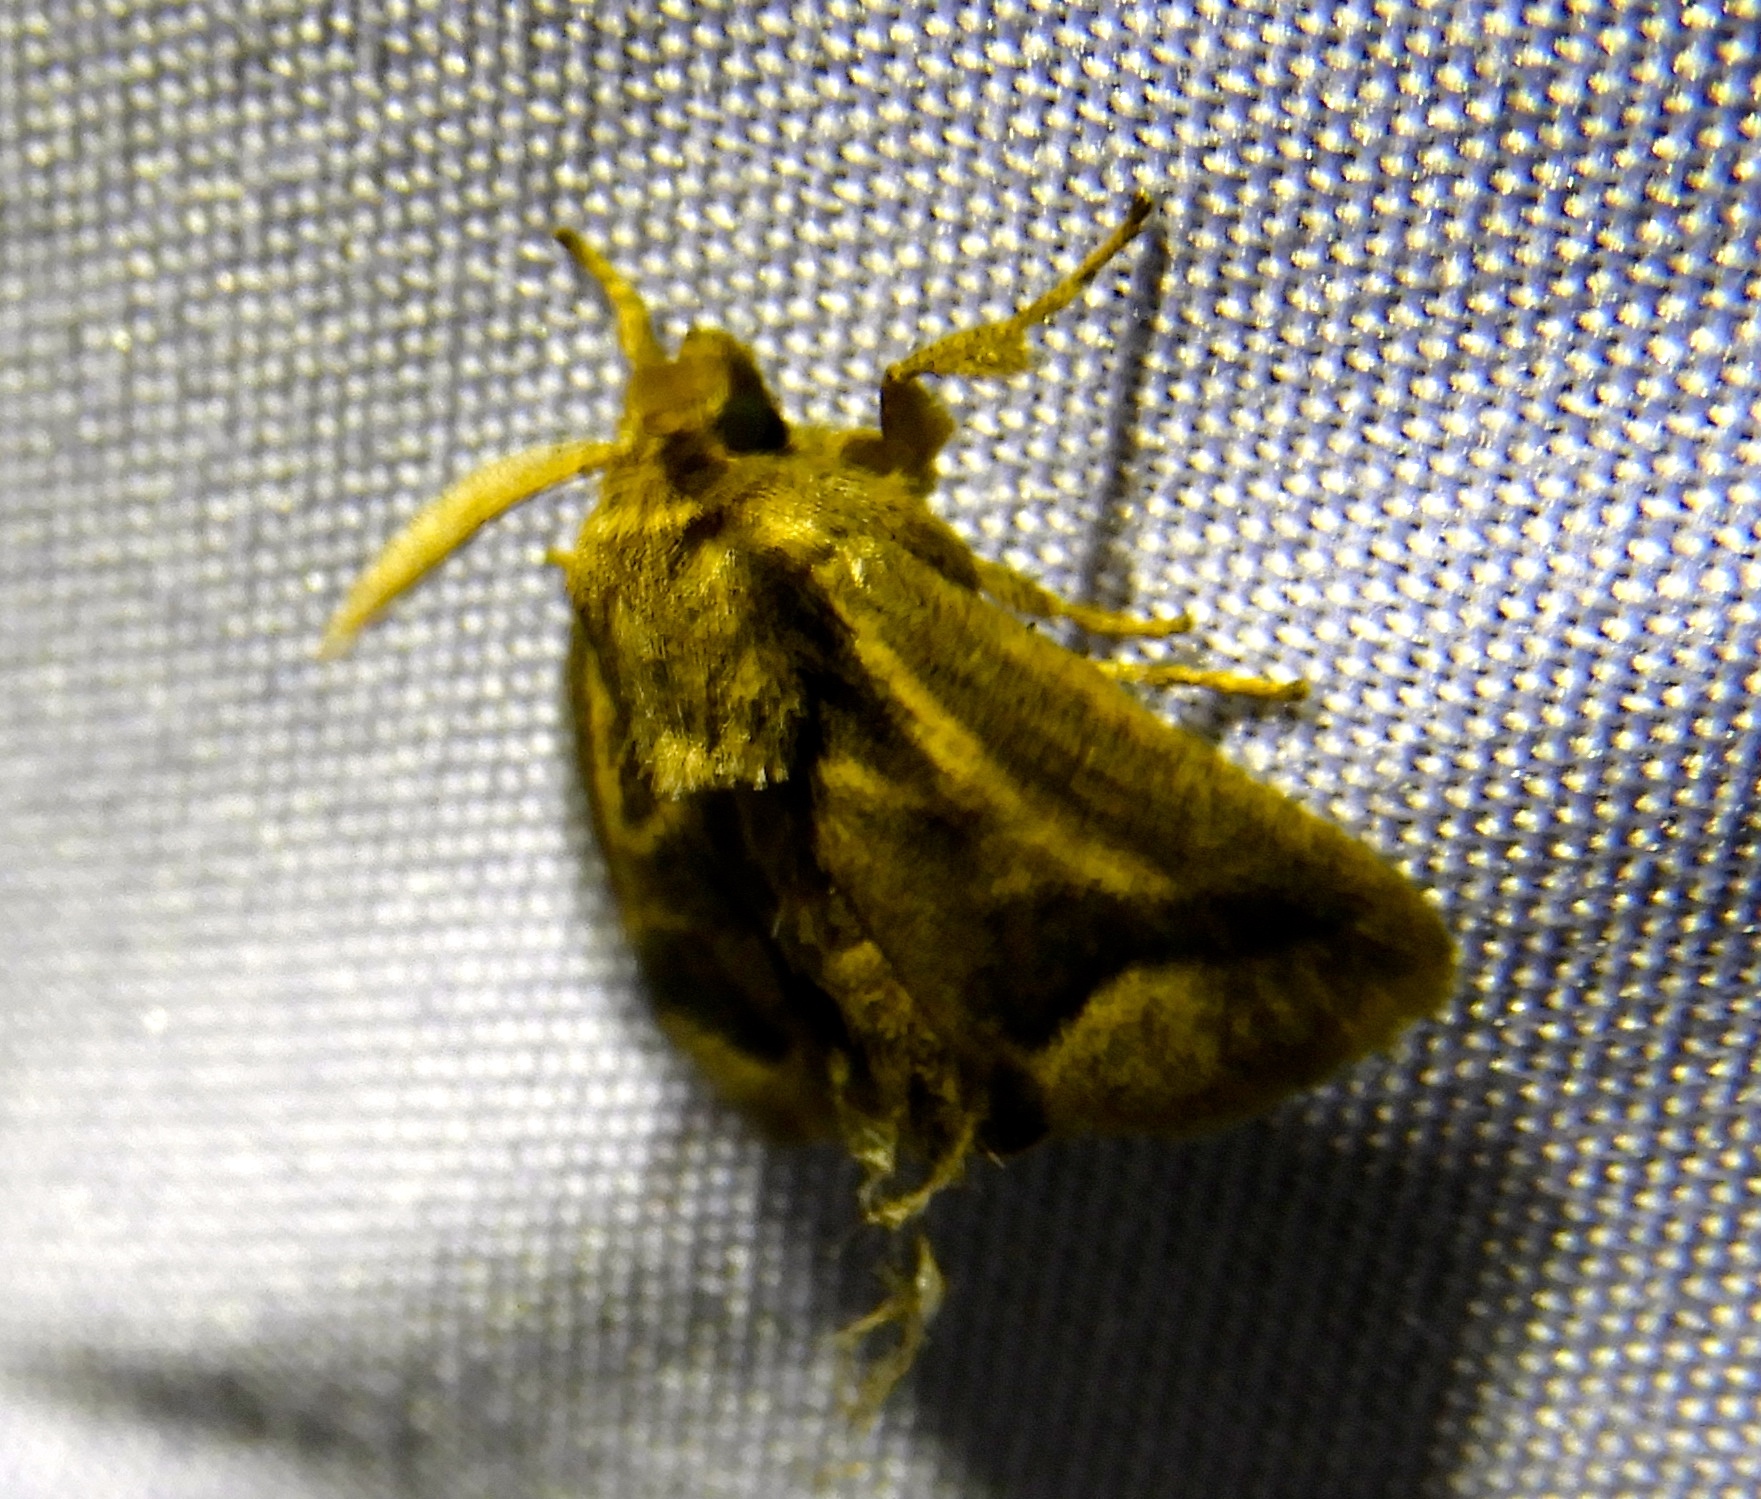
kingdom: Animalia
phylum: Arthropoda
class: Insecta
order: Lepidoptera
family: Limacodidae
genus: Natada
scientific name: Natada
